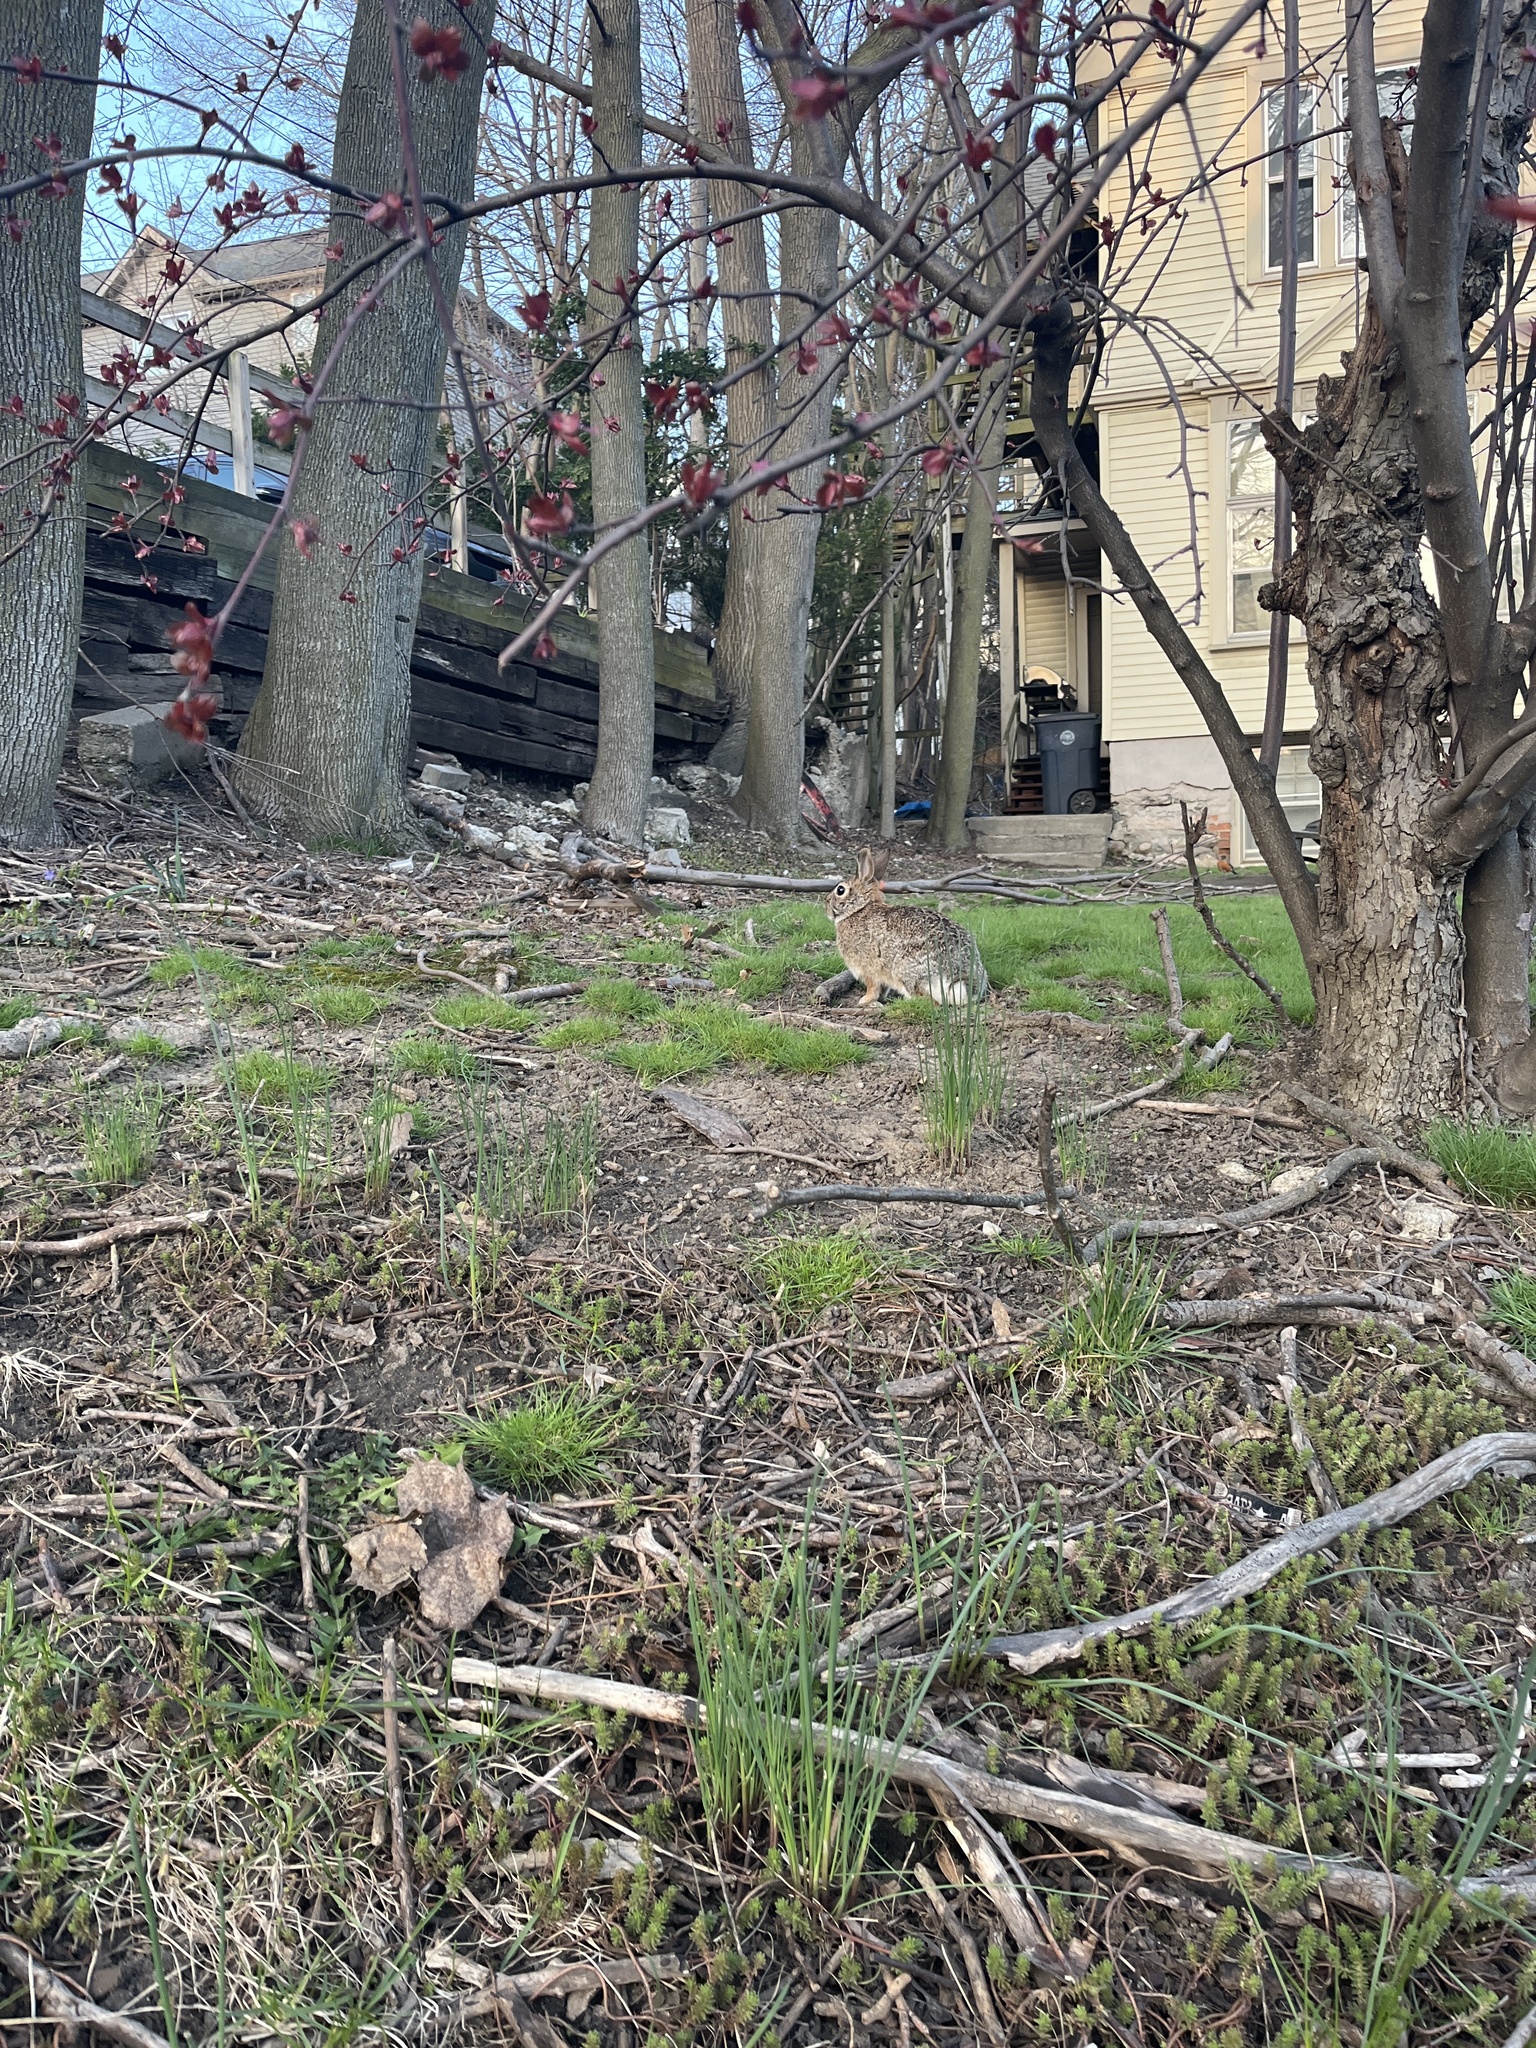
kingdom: Animalia
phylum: Chordata
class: Mammalia
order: Lagomorpha
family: Leporidae
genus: Sylvilagus
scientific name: Sylvilagus floridanus
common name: Eastern cottontail
